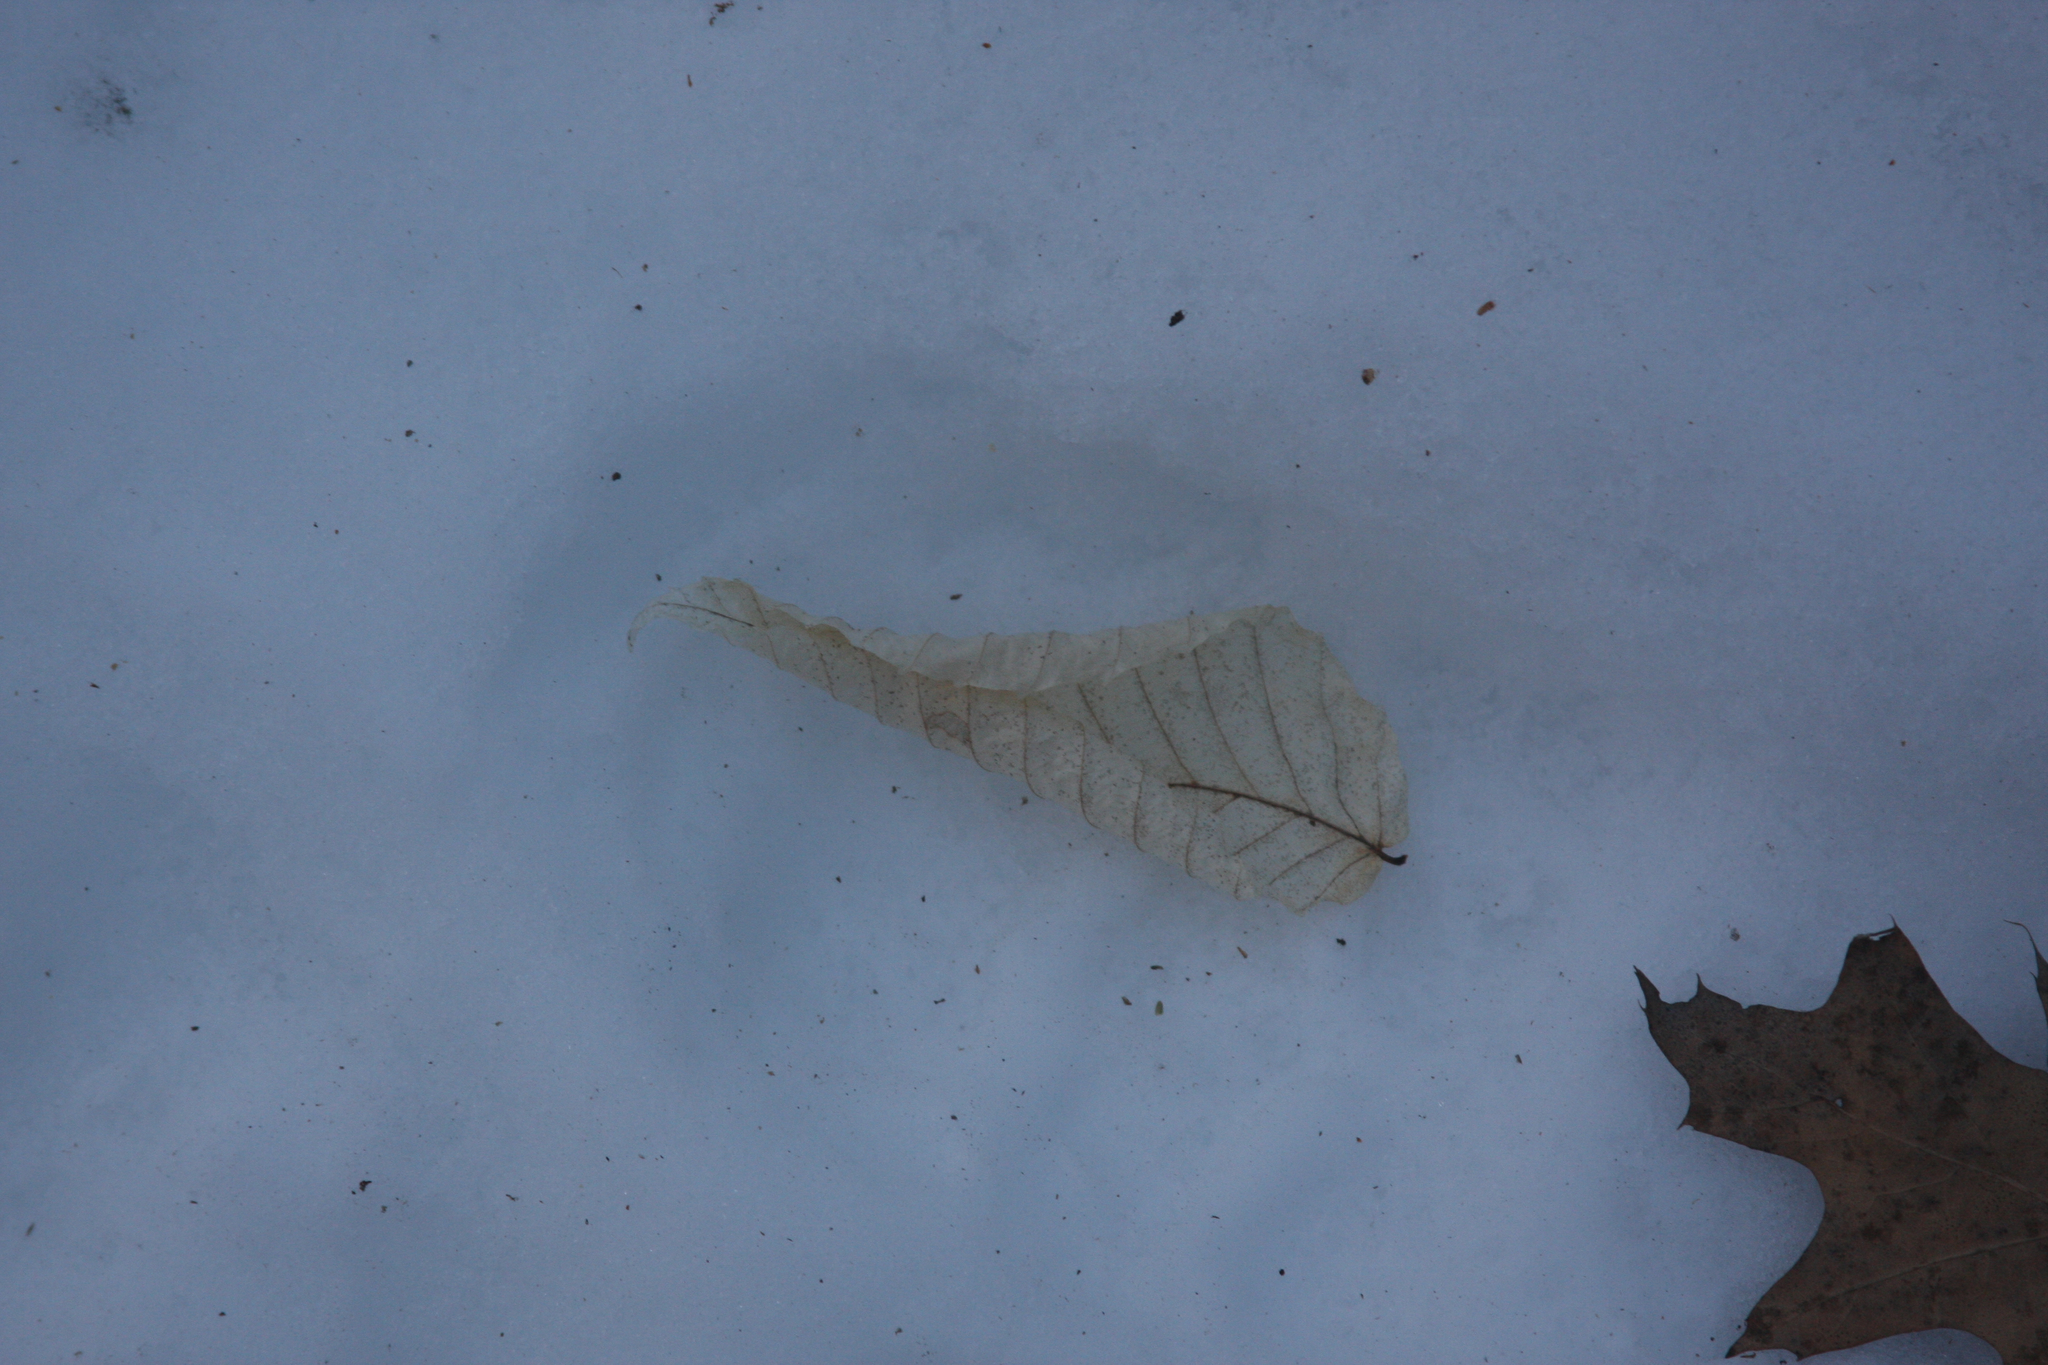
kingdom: Plantae
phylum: Tracheophyta
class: Magnoliopsida
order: Fagales
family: Fagaceae
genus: Fagus
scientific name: Fagus grandifolia
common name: American beech
